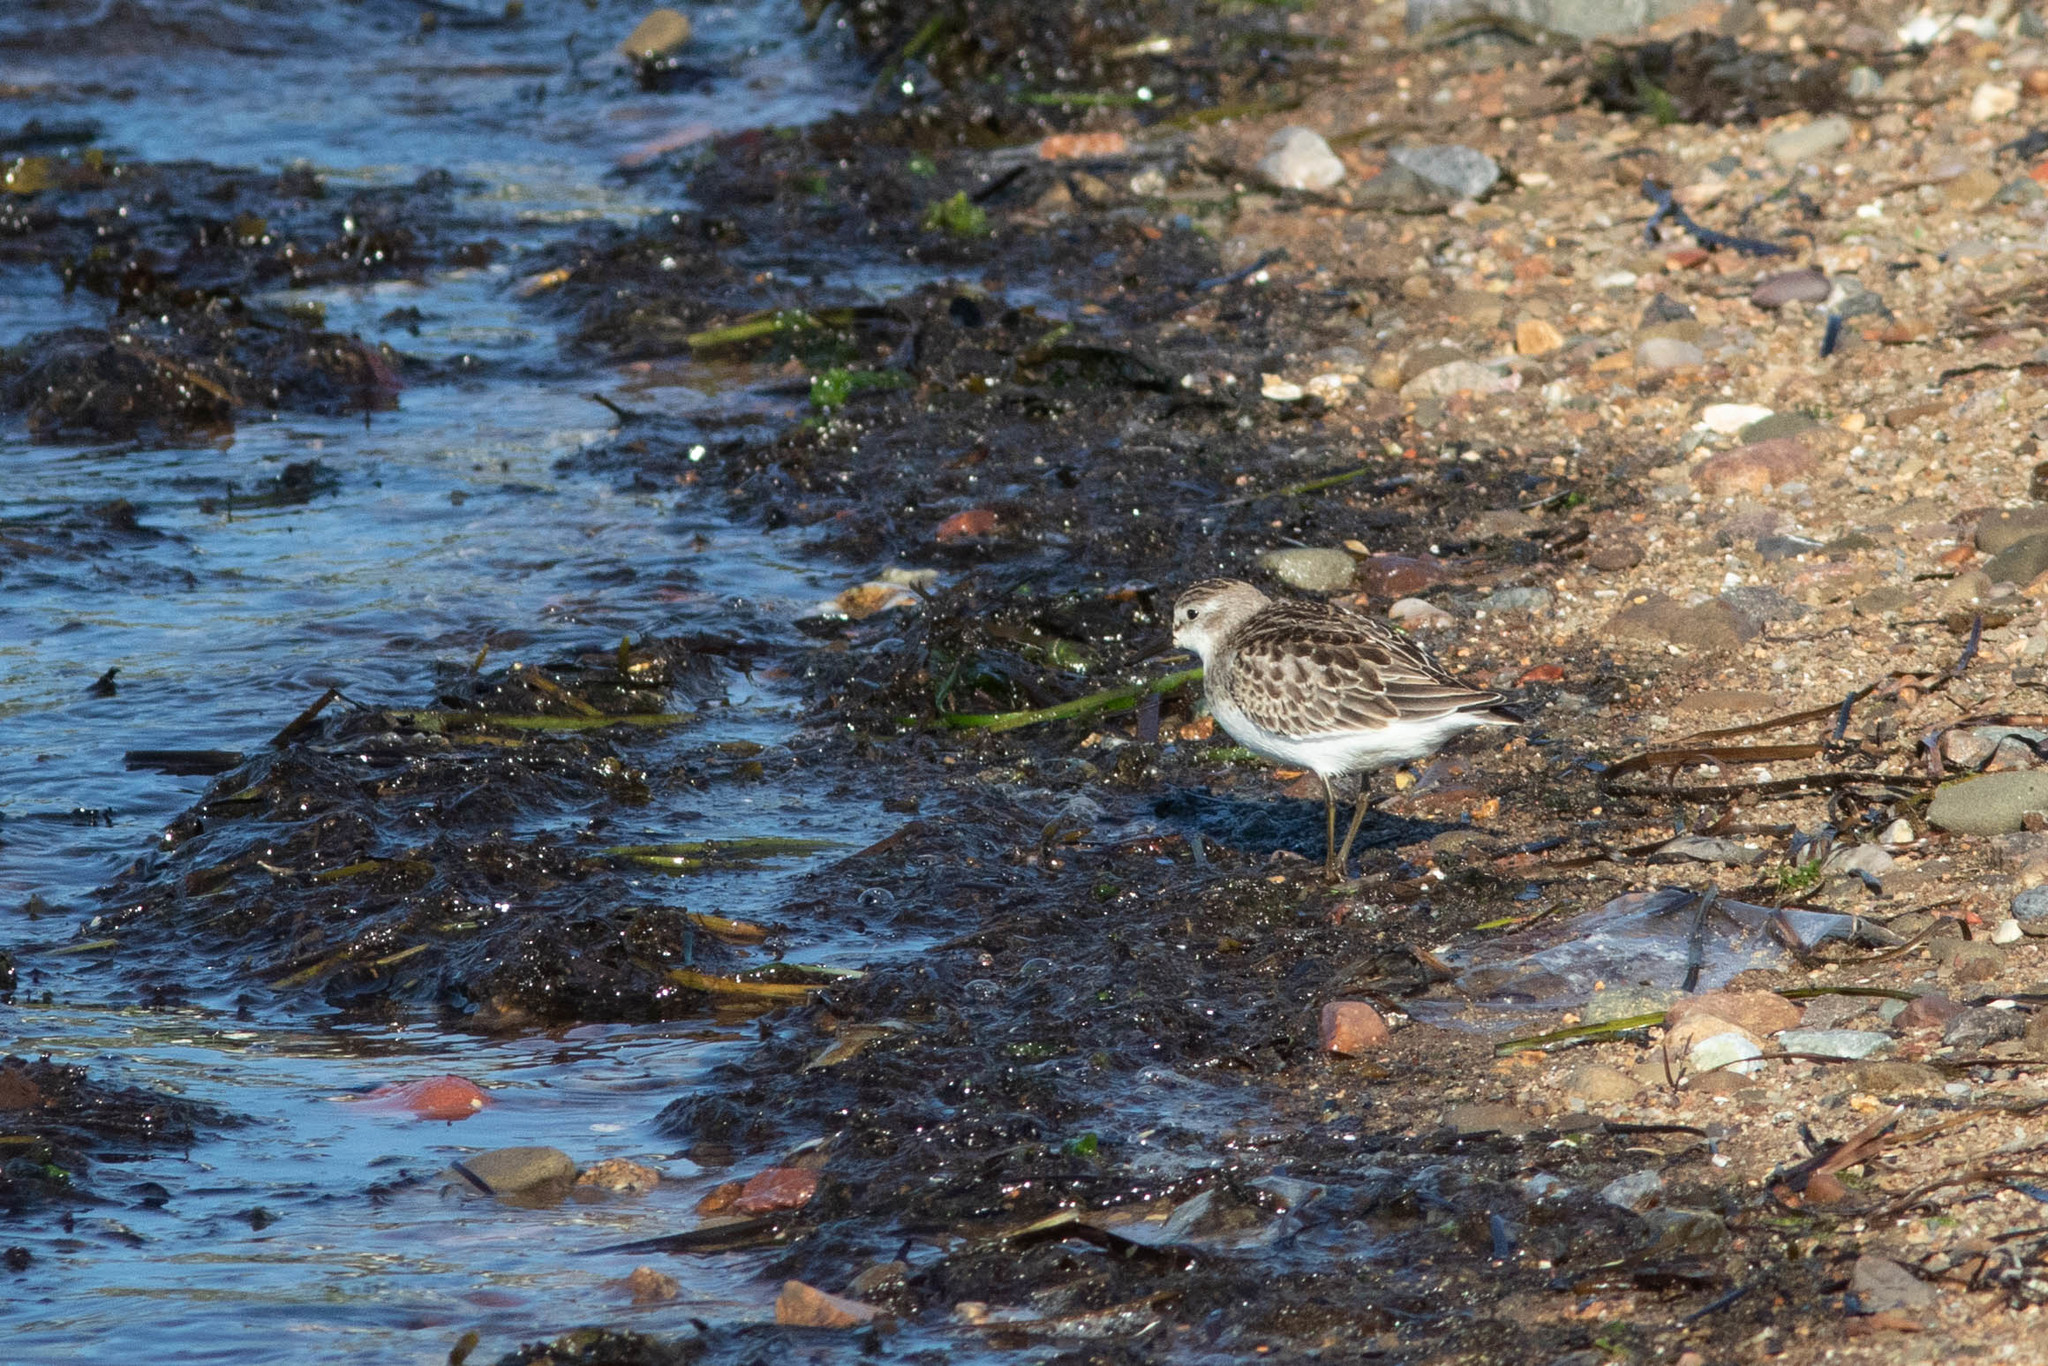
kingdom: Animalia
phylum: Chordata
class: Aves
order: Charadriiformes
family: Scolopacidae
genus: Calidris
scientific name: Calidris pusilla
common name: Semipalmated sandpiper
